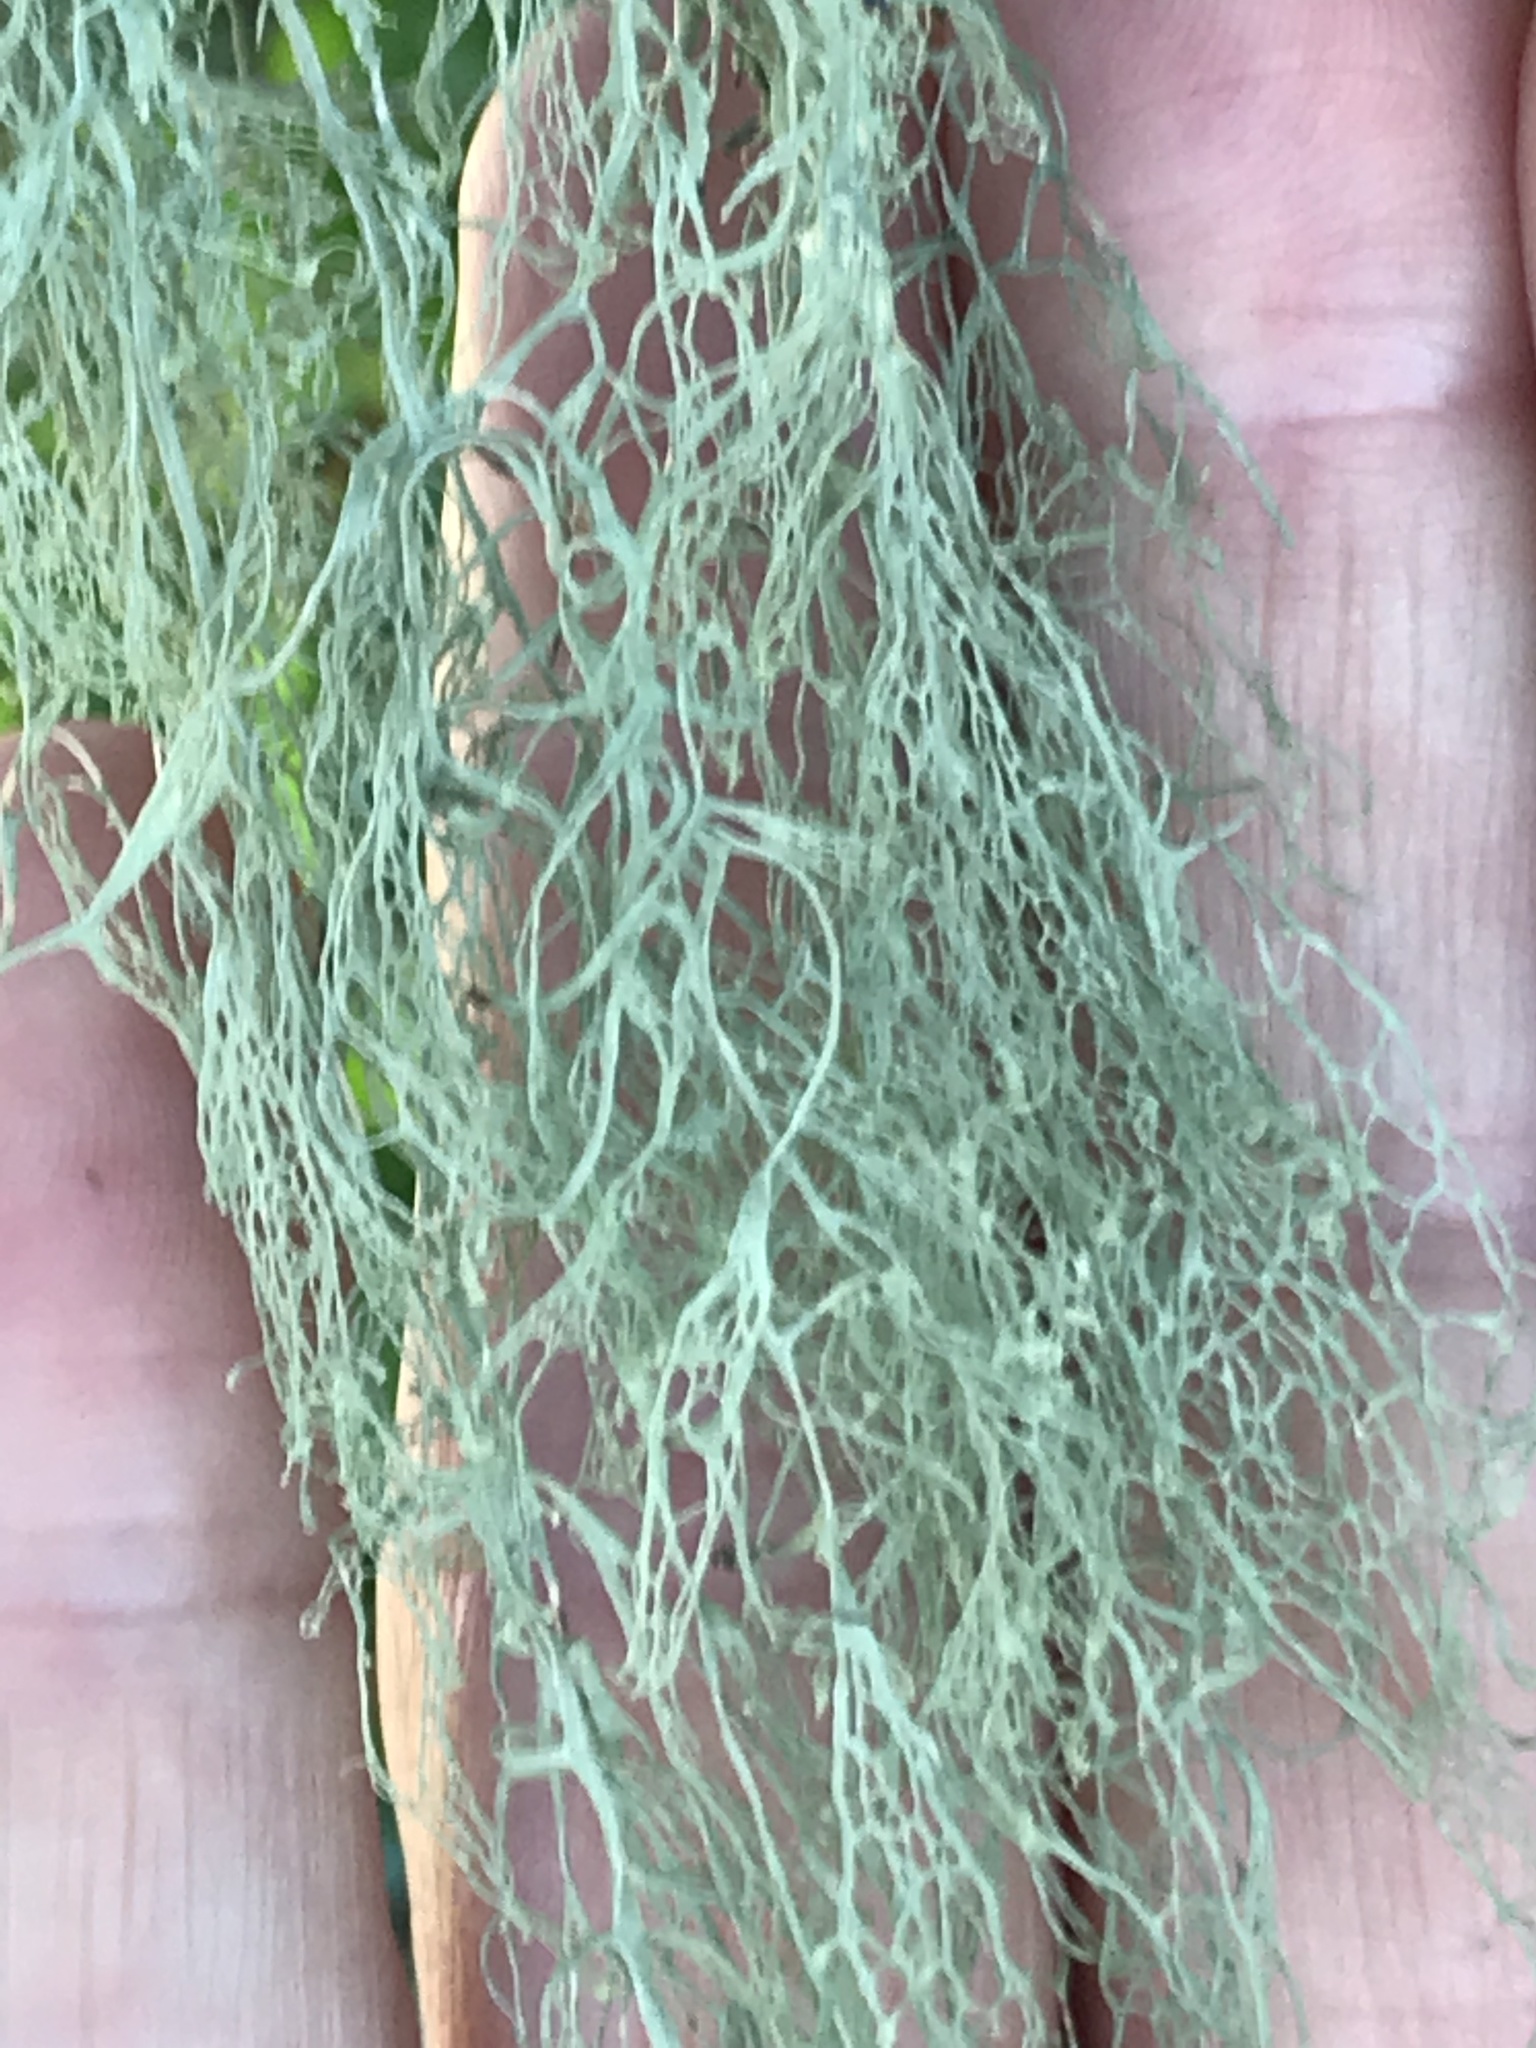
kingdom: Fungi
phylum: Ascomycota
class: Lecanoromycetes
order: Lecanorales
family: Ramalinaceae
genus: Ramalina
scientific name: Ramalina menziesii
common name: Lace lichen
